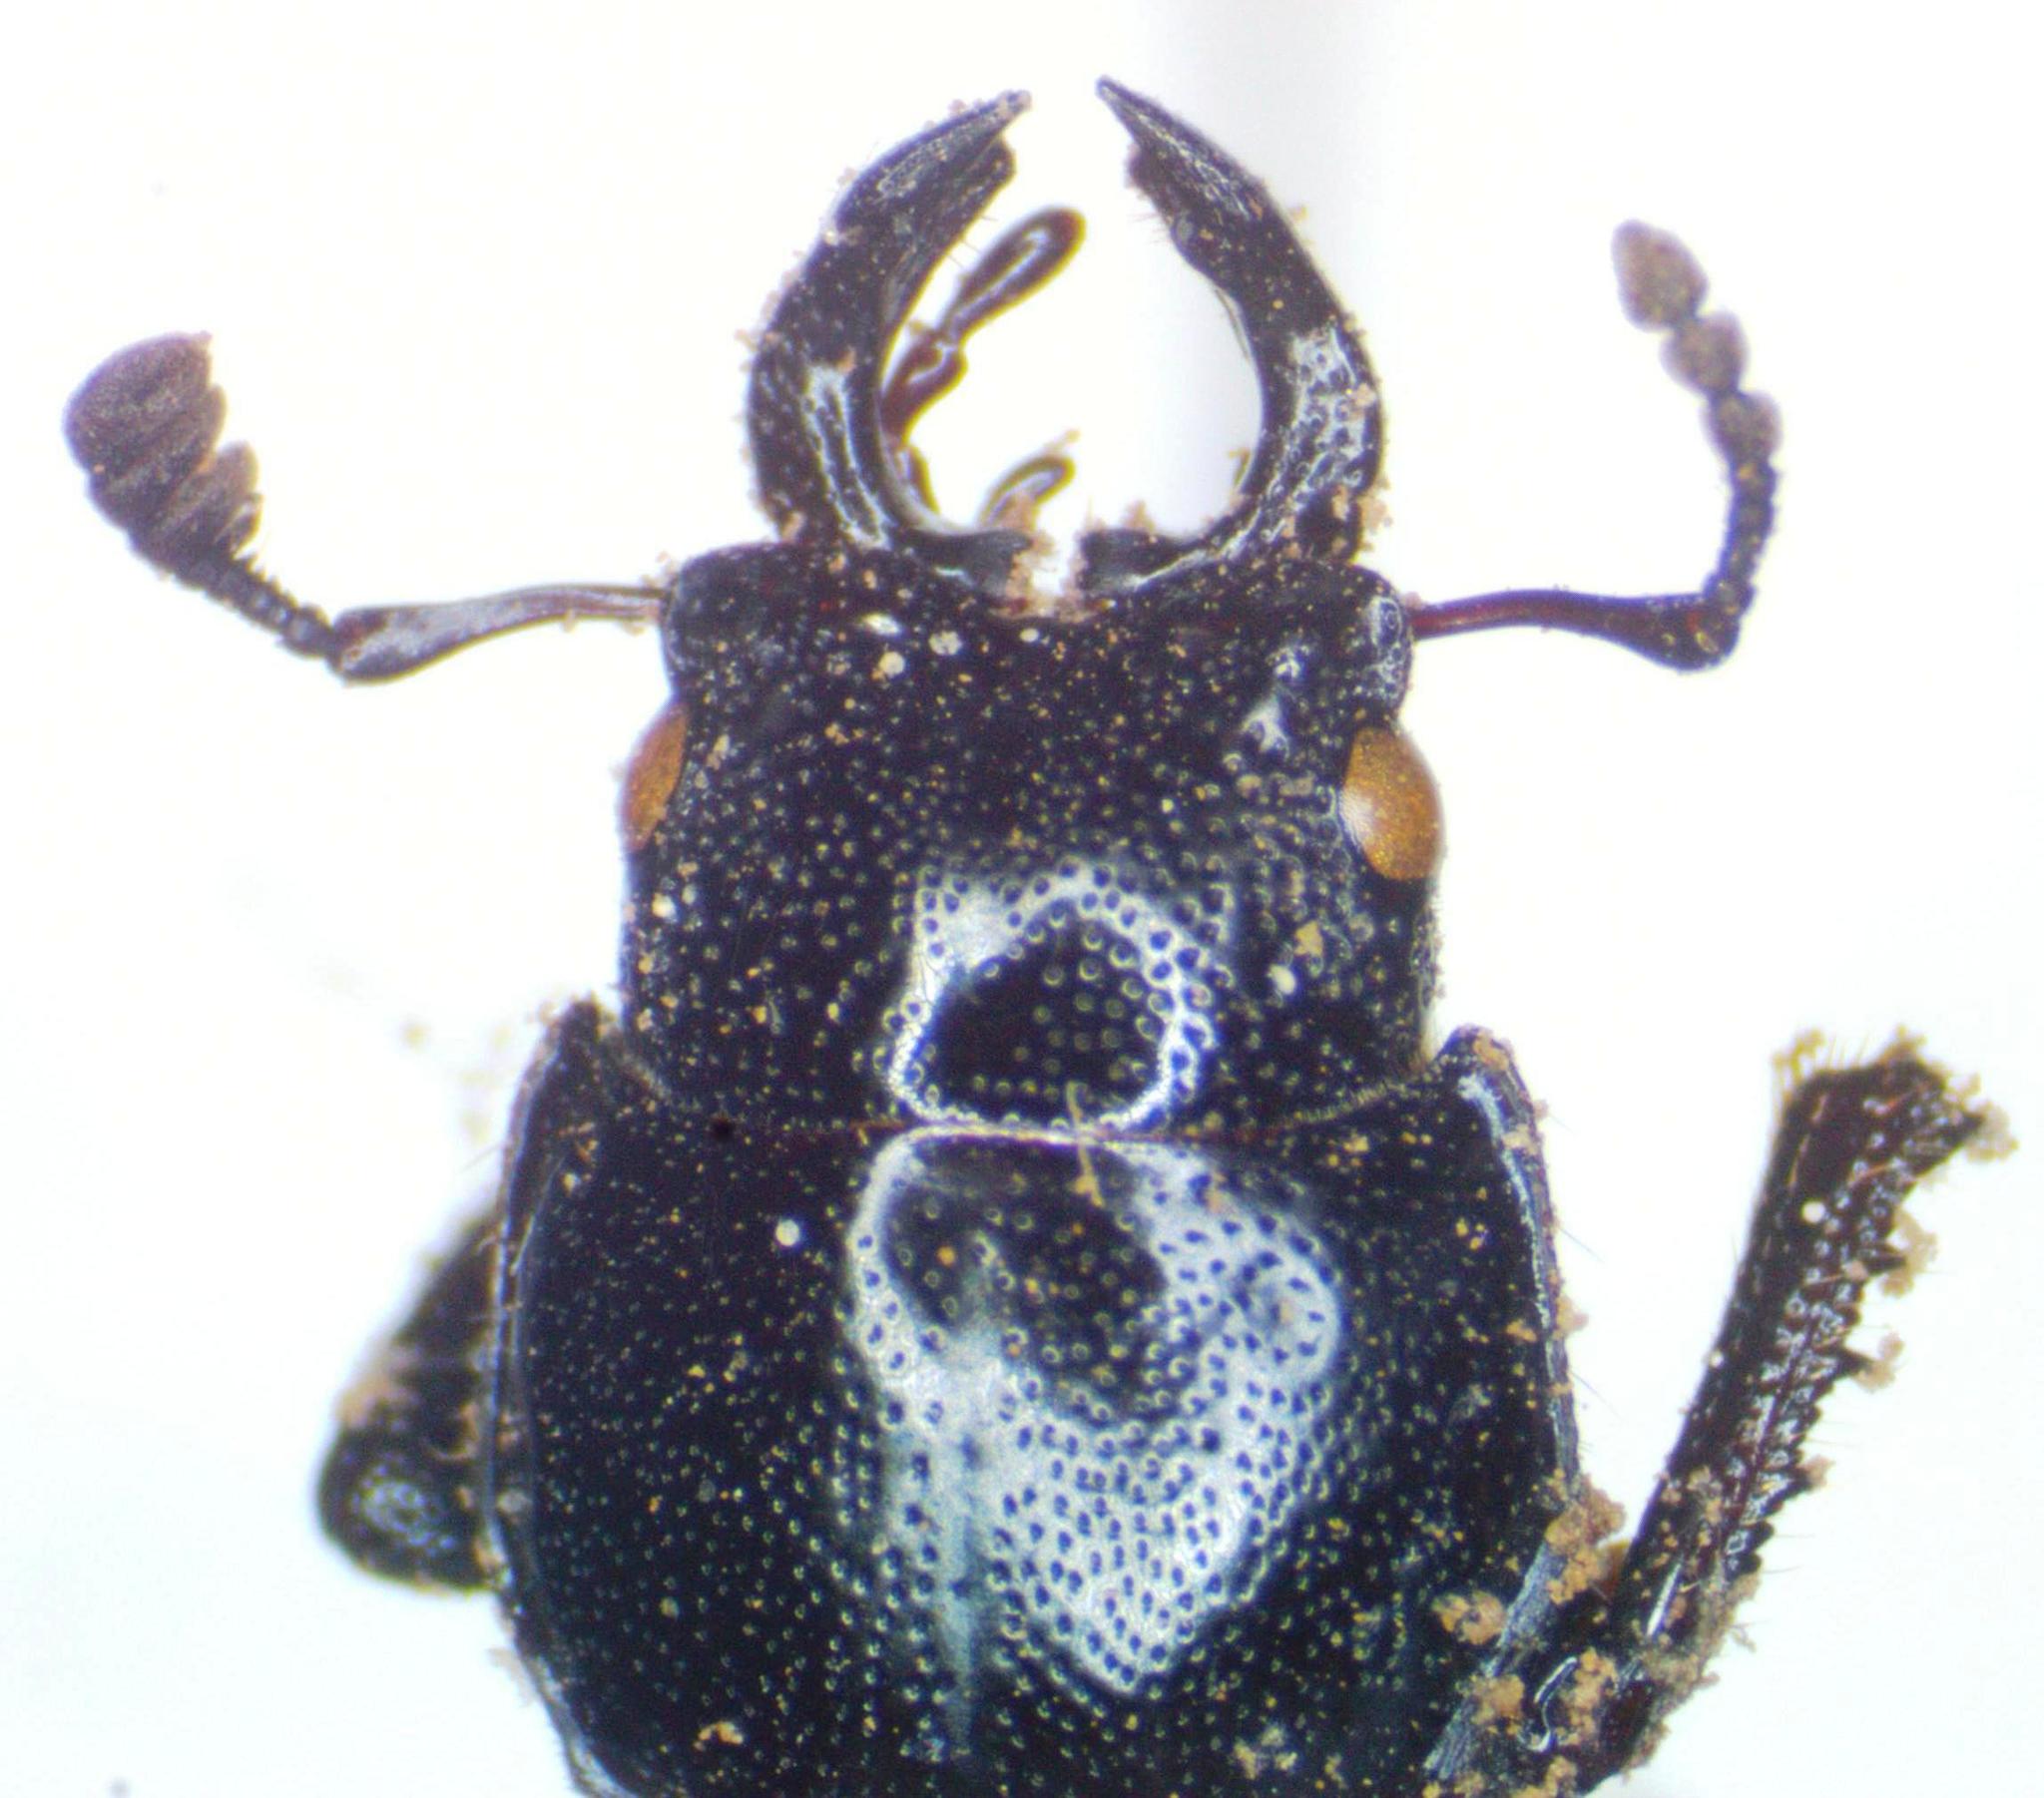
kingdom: Animalia
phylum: Arthropoda
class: Insecta
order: Coleoptera
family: Lucanidae
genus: Platycerus
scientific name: Platycerus oregonensis
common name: Oregon stag beetle
